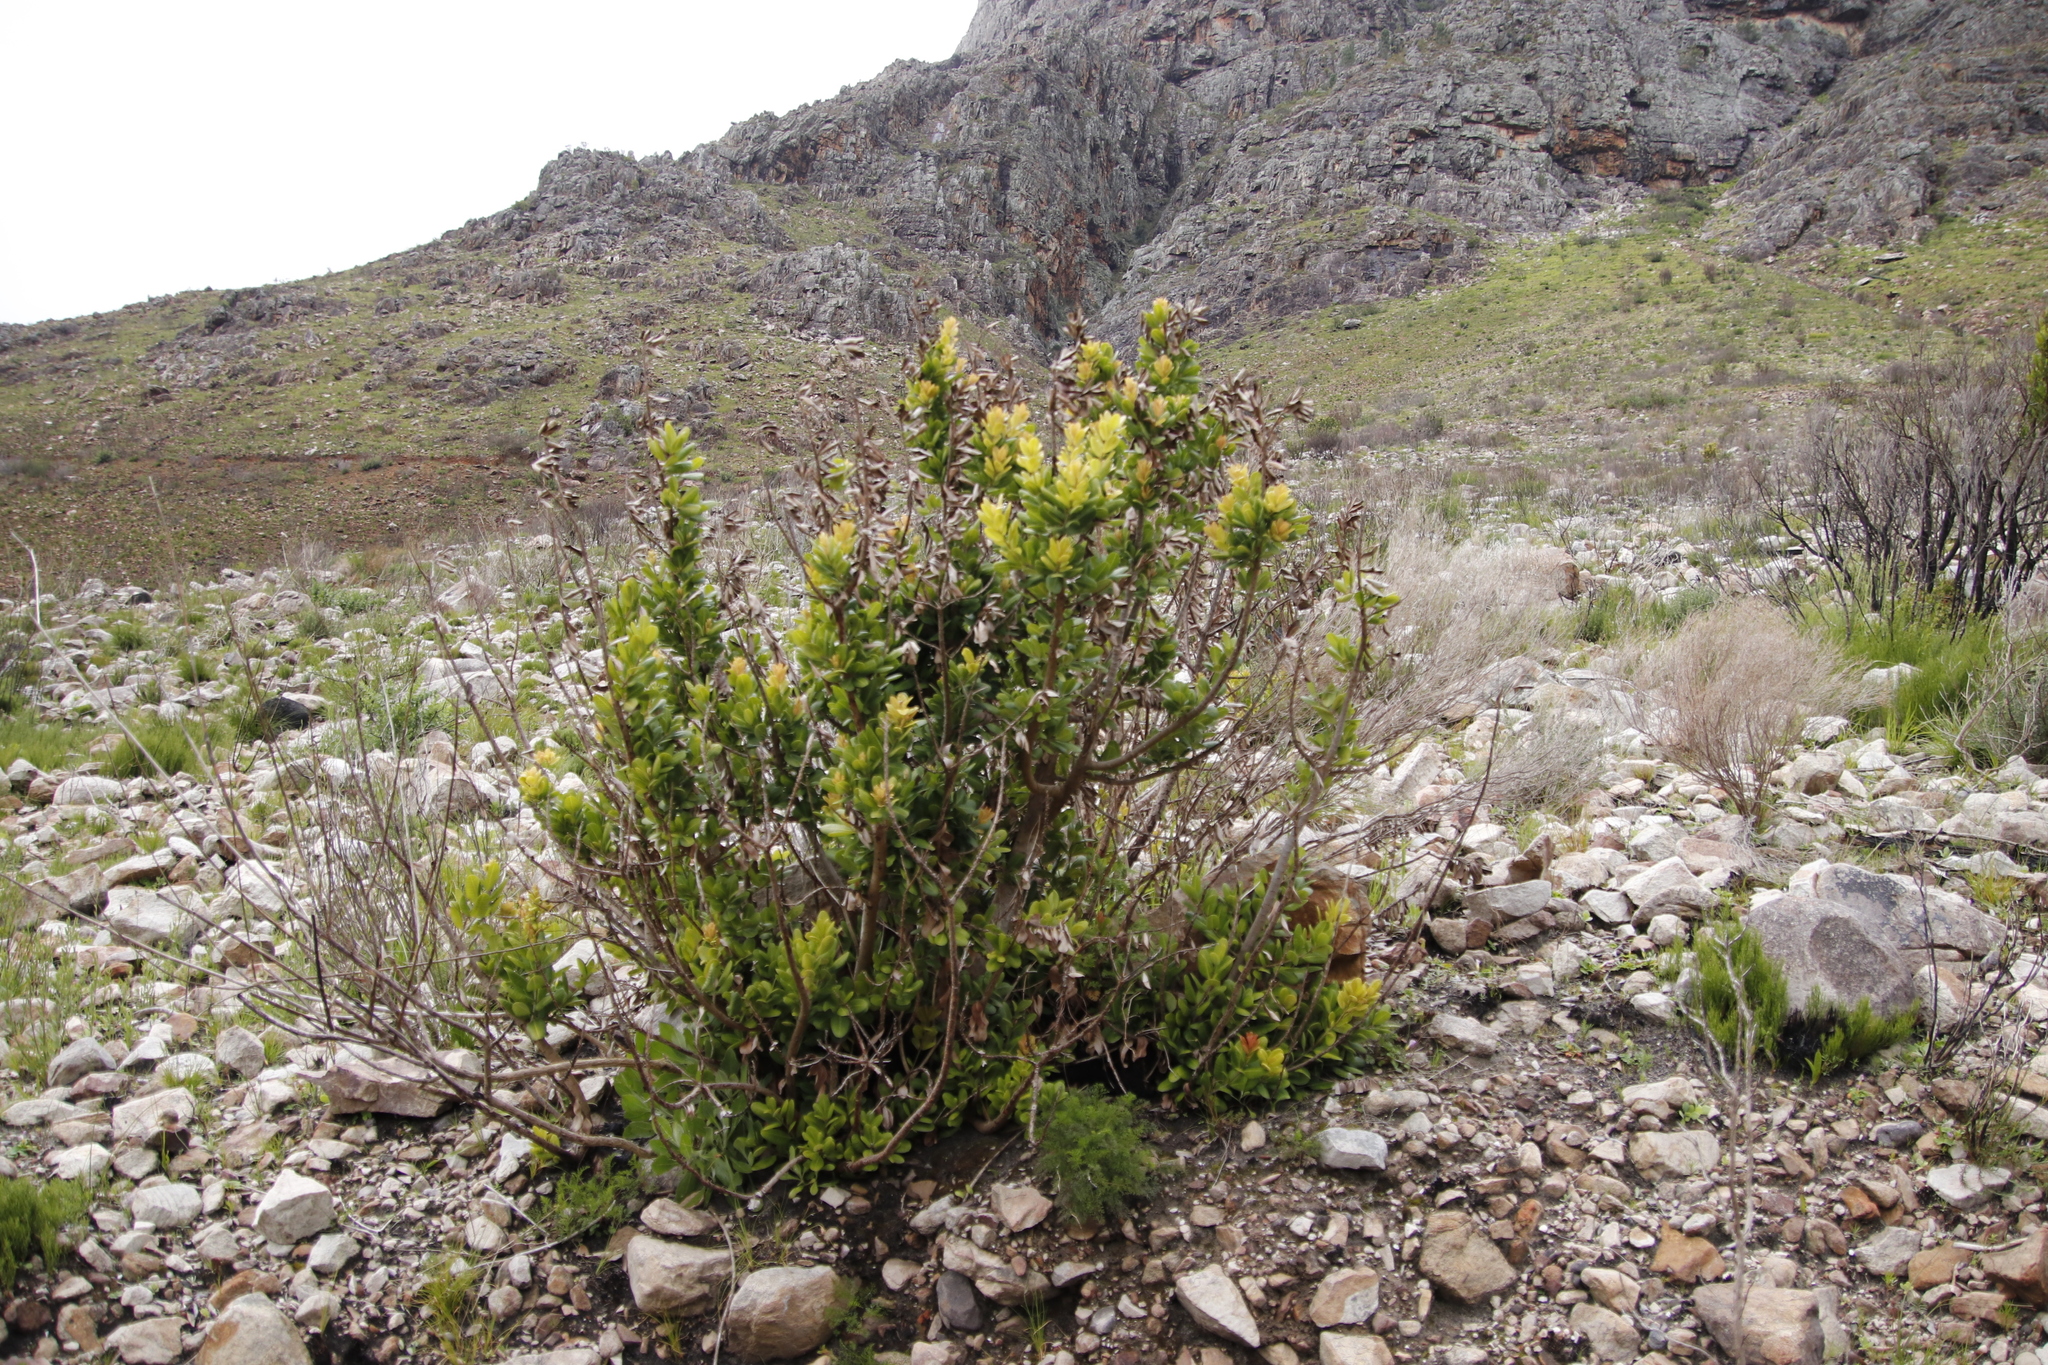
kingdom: Plantae
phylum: Tracheophyta
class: Magnoliopsida
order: Sapindales
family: Anacardiaceae
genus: Heeria
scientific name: Heeria argentea
